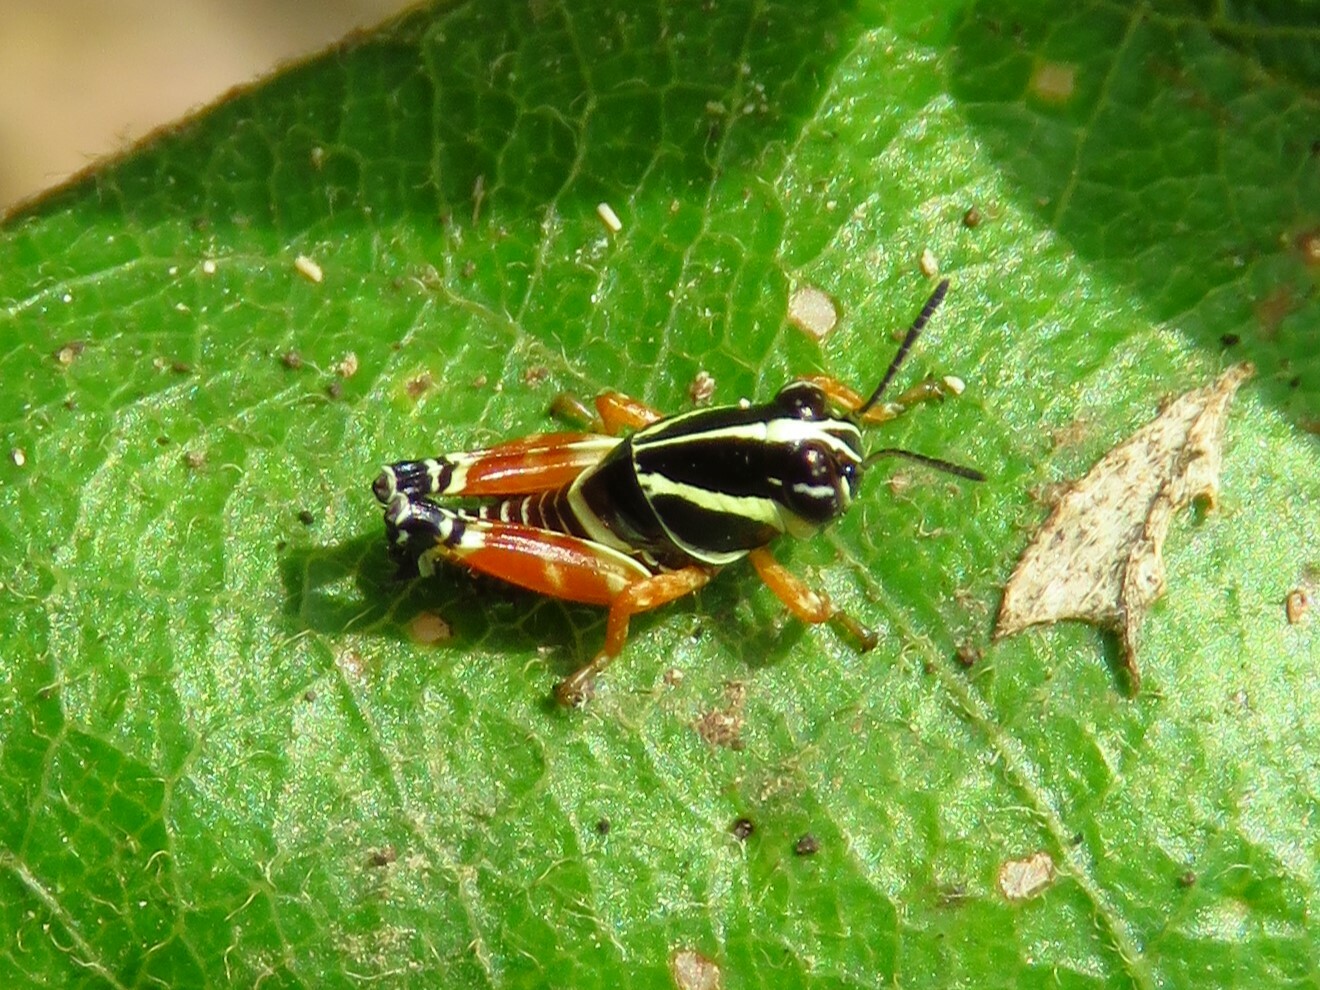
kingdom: Animalia
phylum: Arthropoda
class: Insecta
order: Orthoptera
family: Acrididae
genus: Aidemona
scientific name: Aidemona azteca
